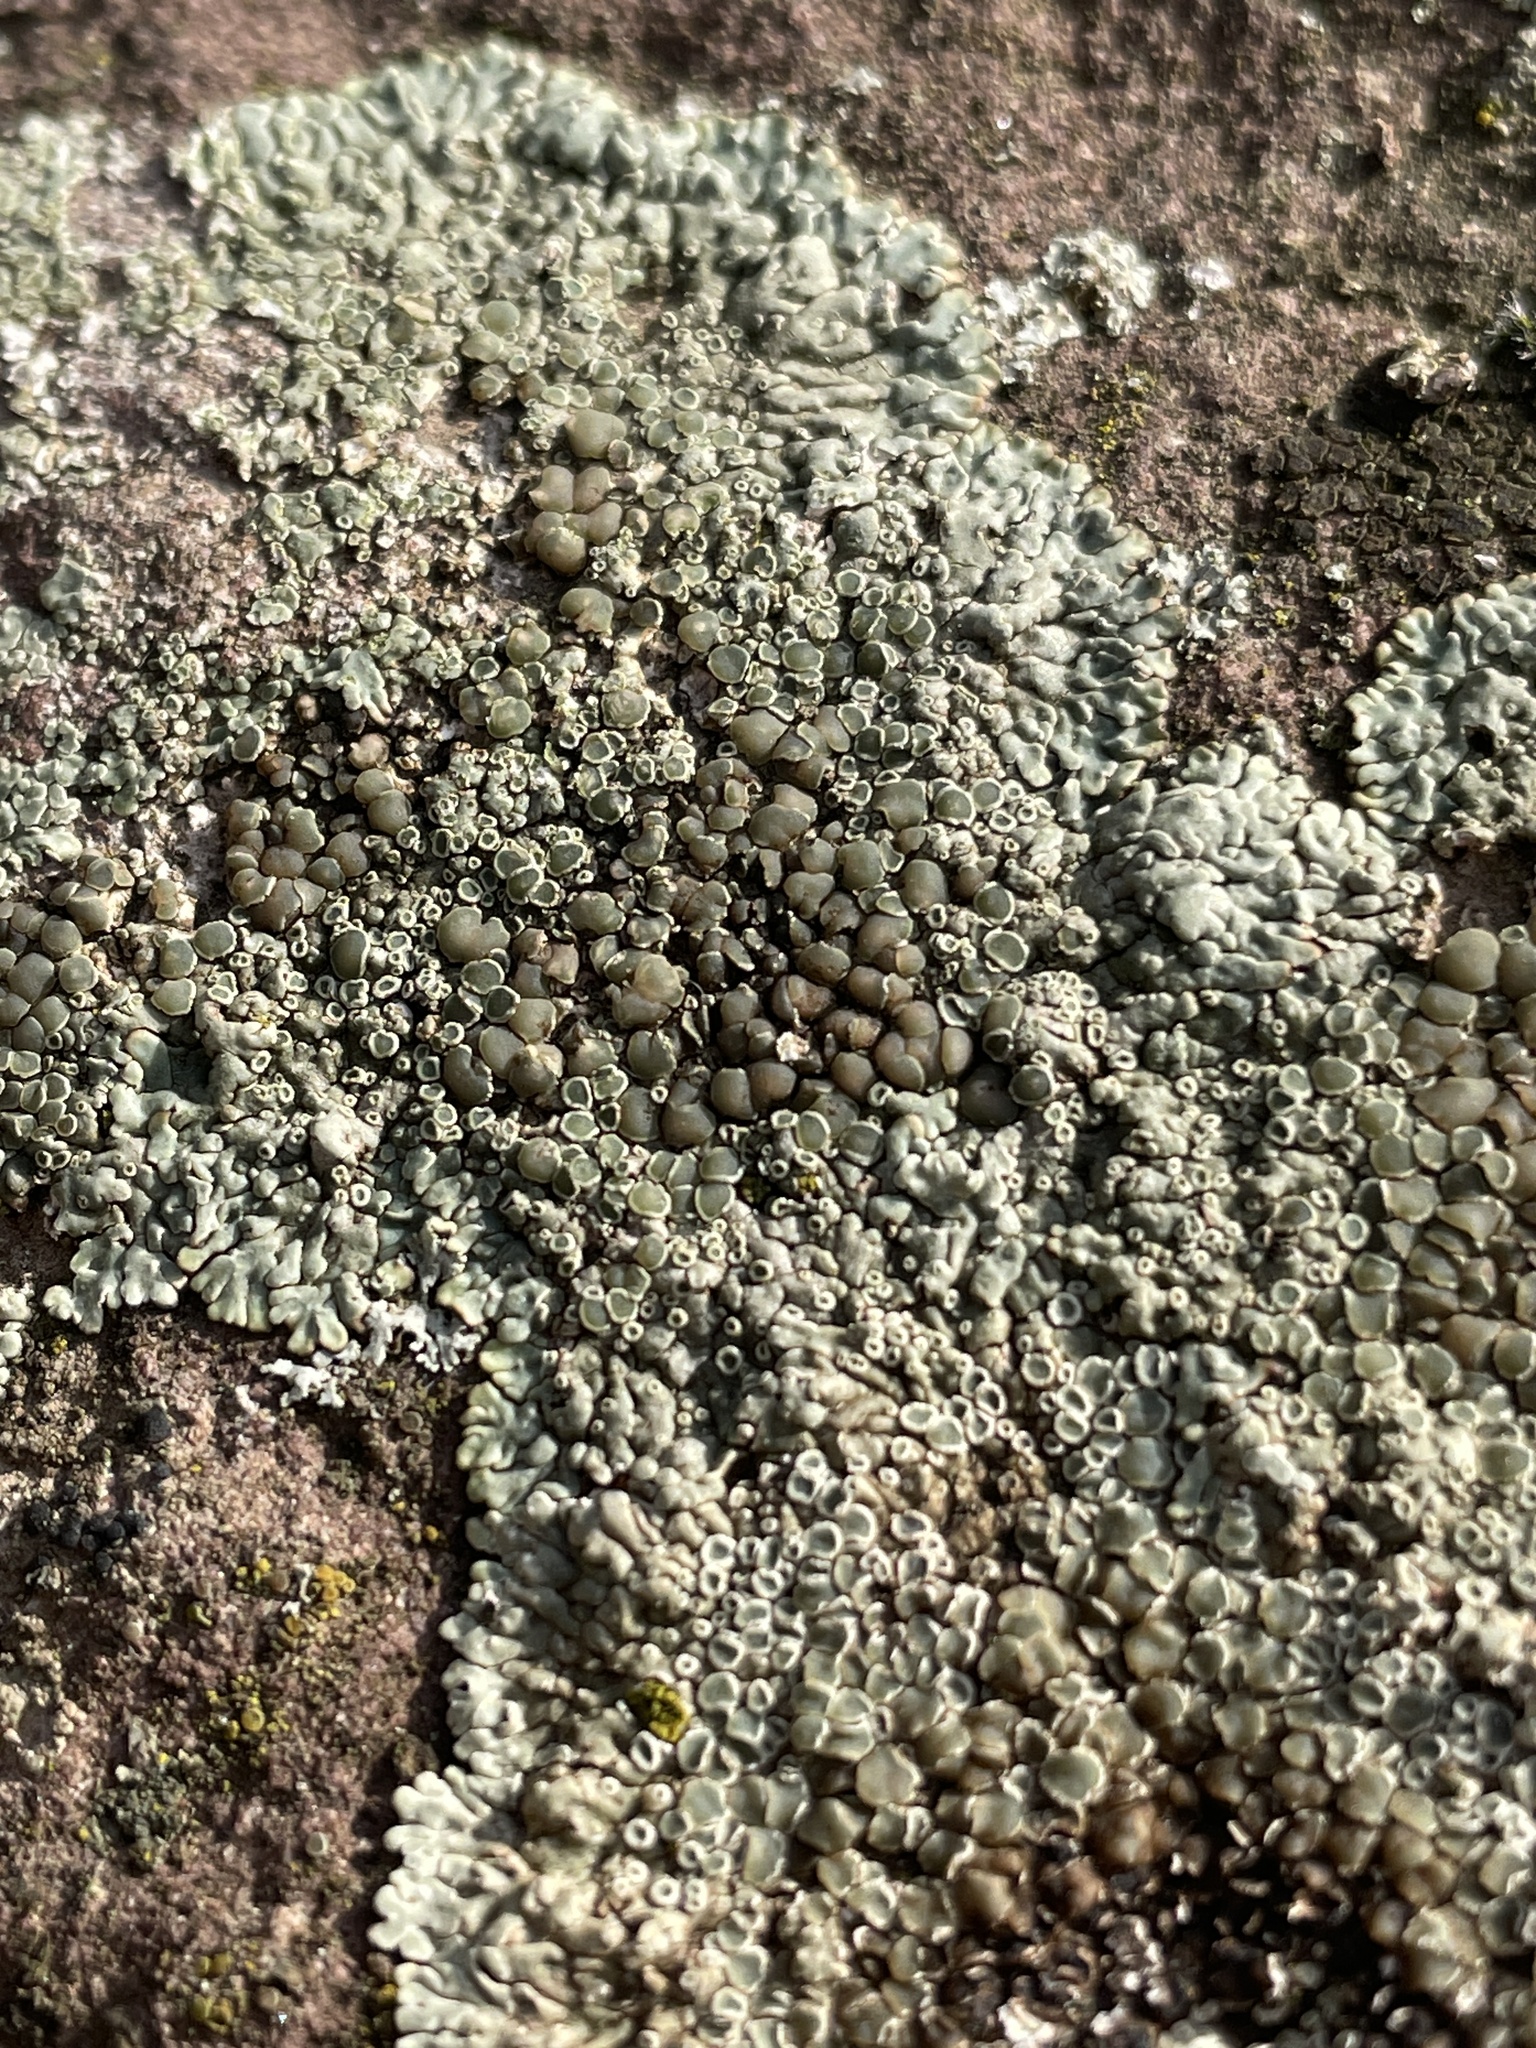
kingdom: Fungi
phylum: Ascomycota
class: Lecanoromycetes
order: Lecanorales
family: Lecanoraceae
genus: Protoparmeliopsis
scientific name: Protoparmeliopsis muralis
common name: Stonewall rim lichen
